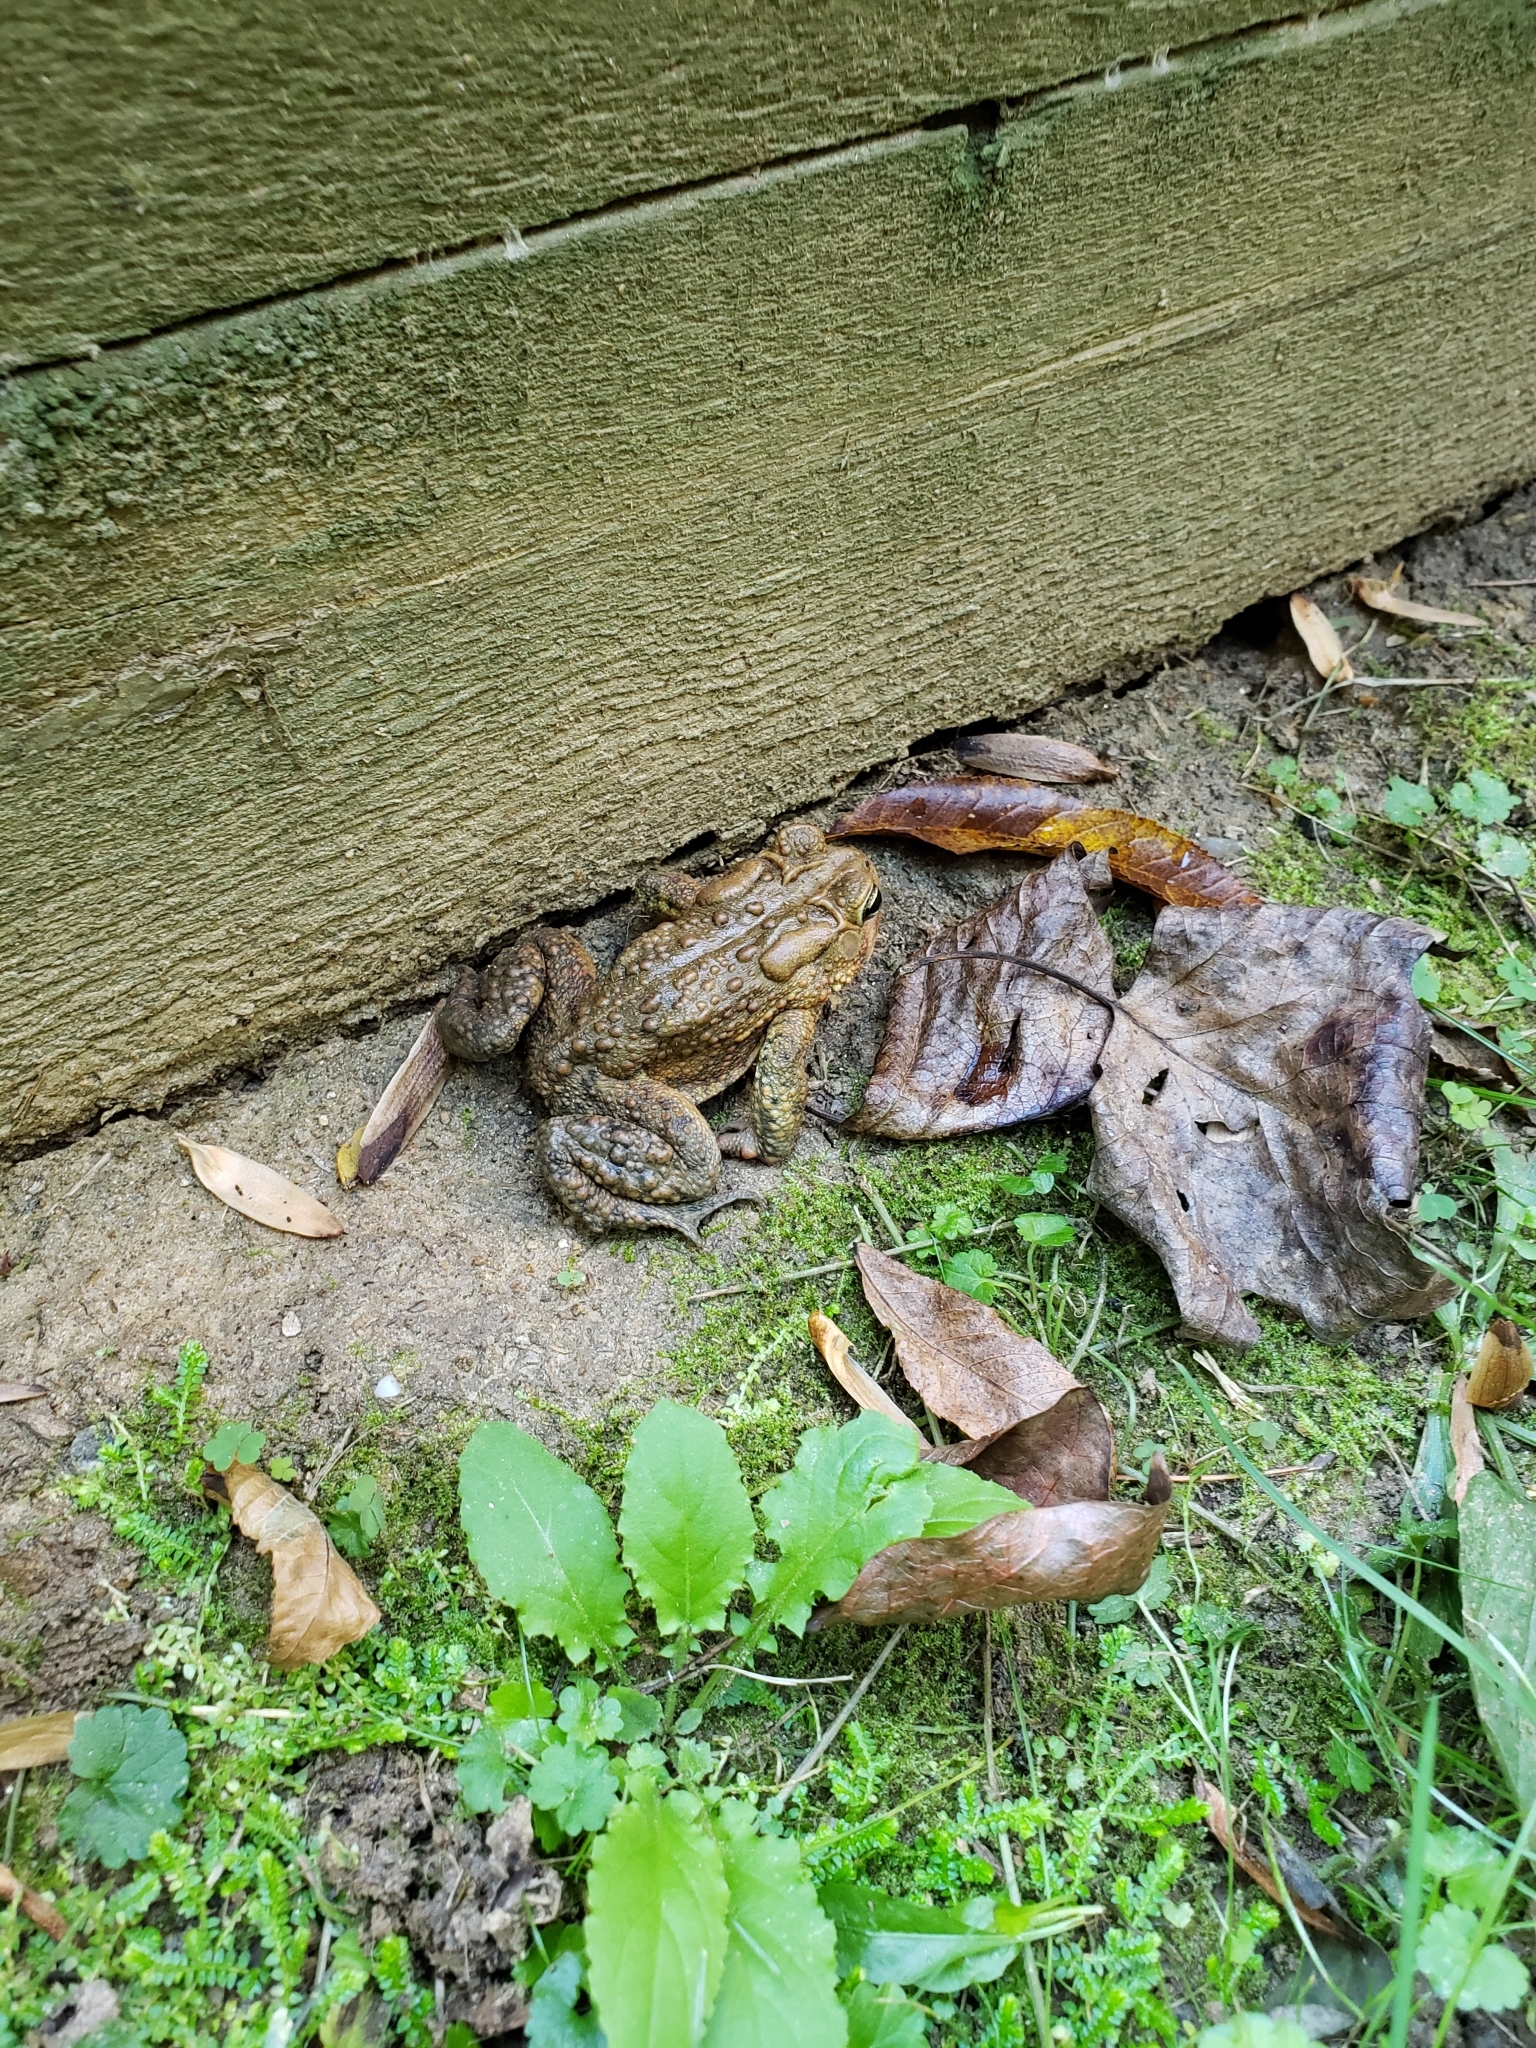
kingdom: Animalia
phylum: Chordata
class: Amphibia
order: Anura
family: Bufonidae
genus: Anaxyrus
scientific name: Anaxyrus americanus
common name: American toad
